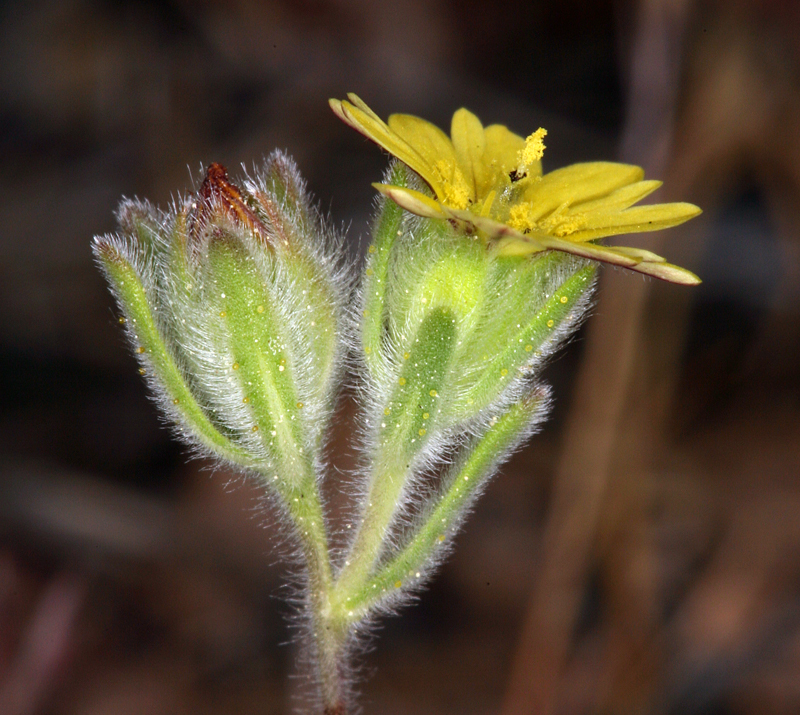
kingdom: Plantae
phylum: Tracheophyta
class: Magnoliopsida
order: Asterales
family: Asteraceae
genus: Lagophylla
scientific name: Lagophylla ramosissima
